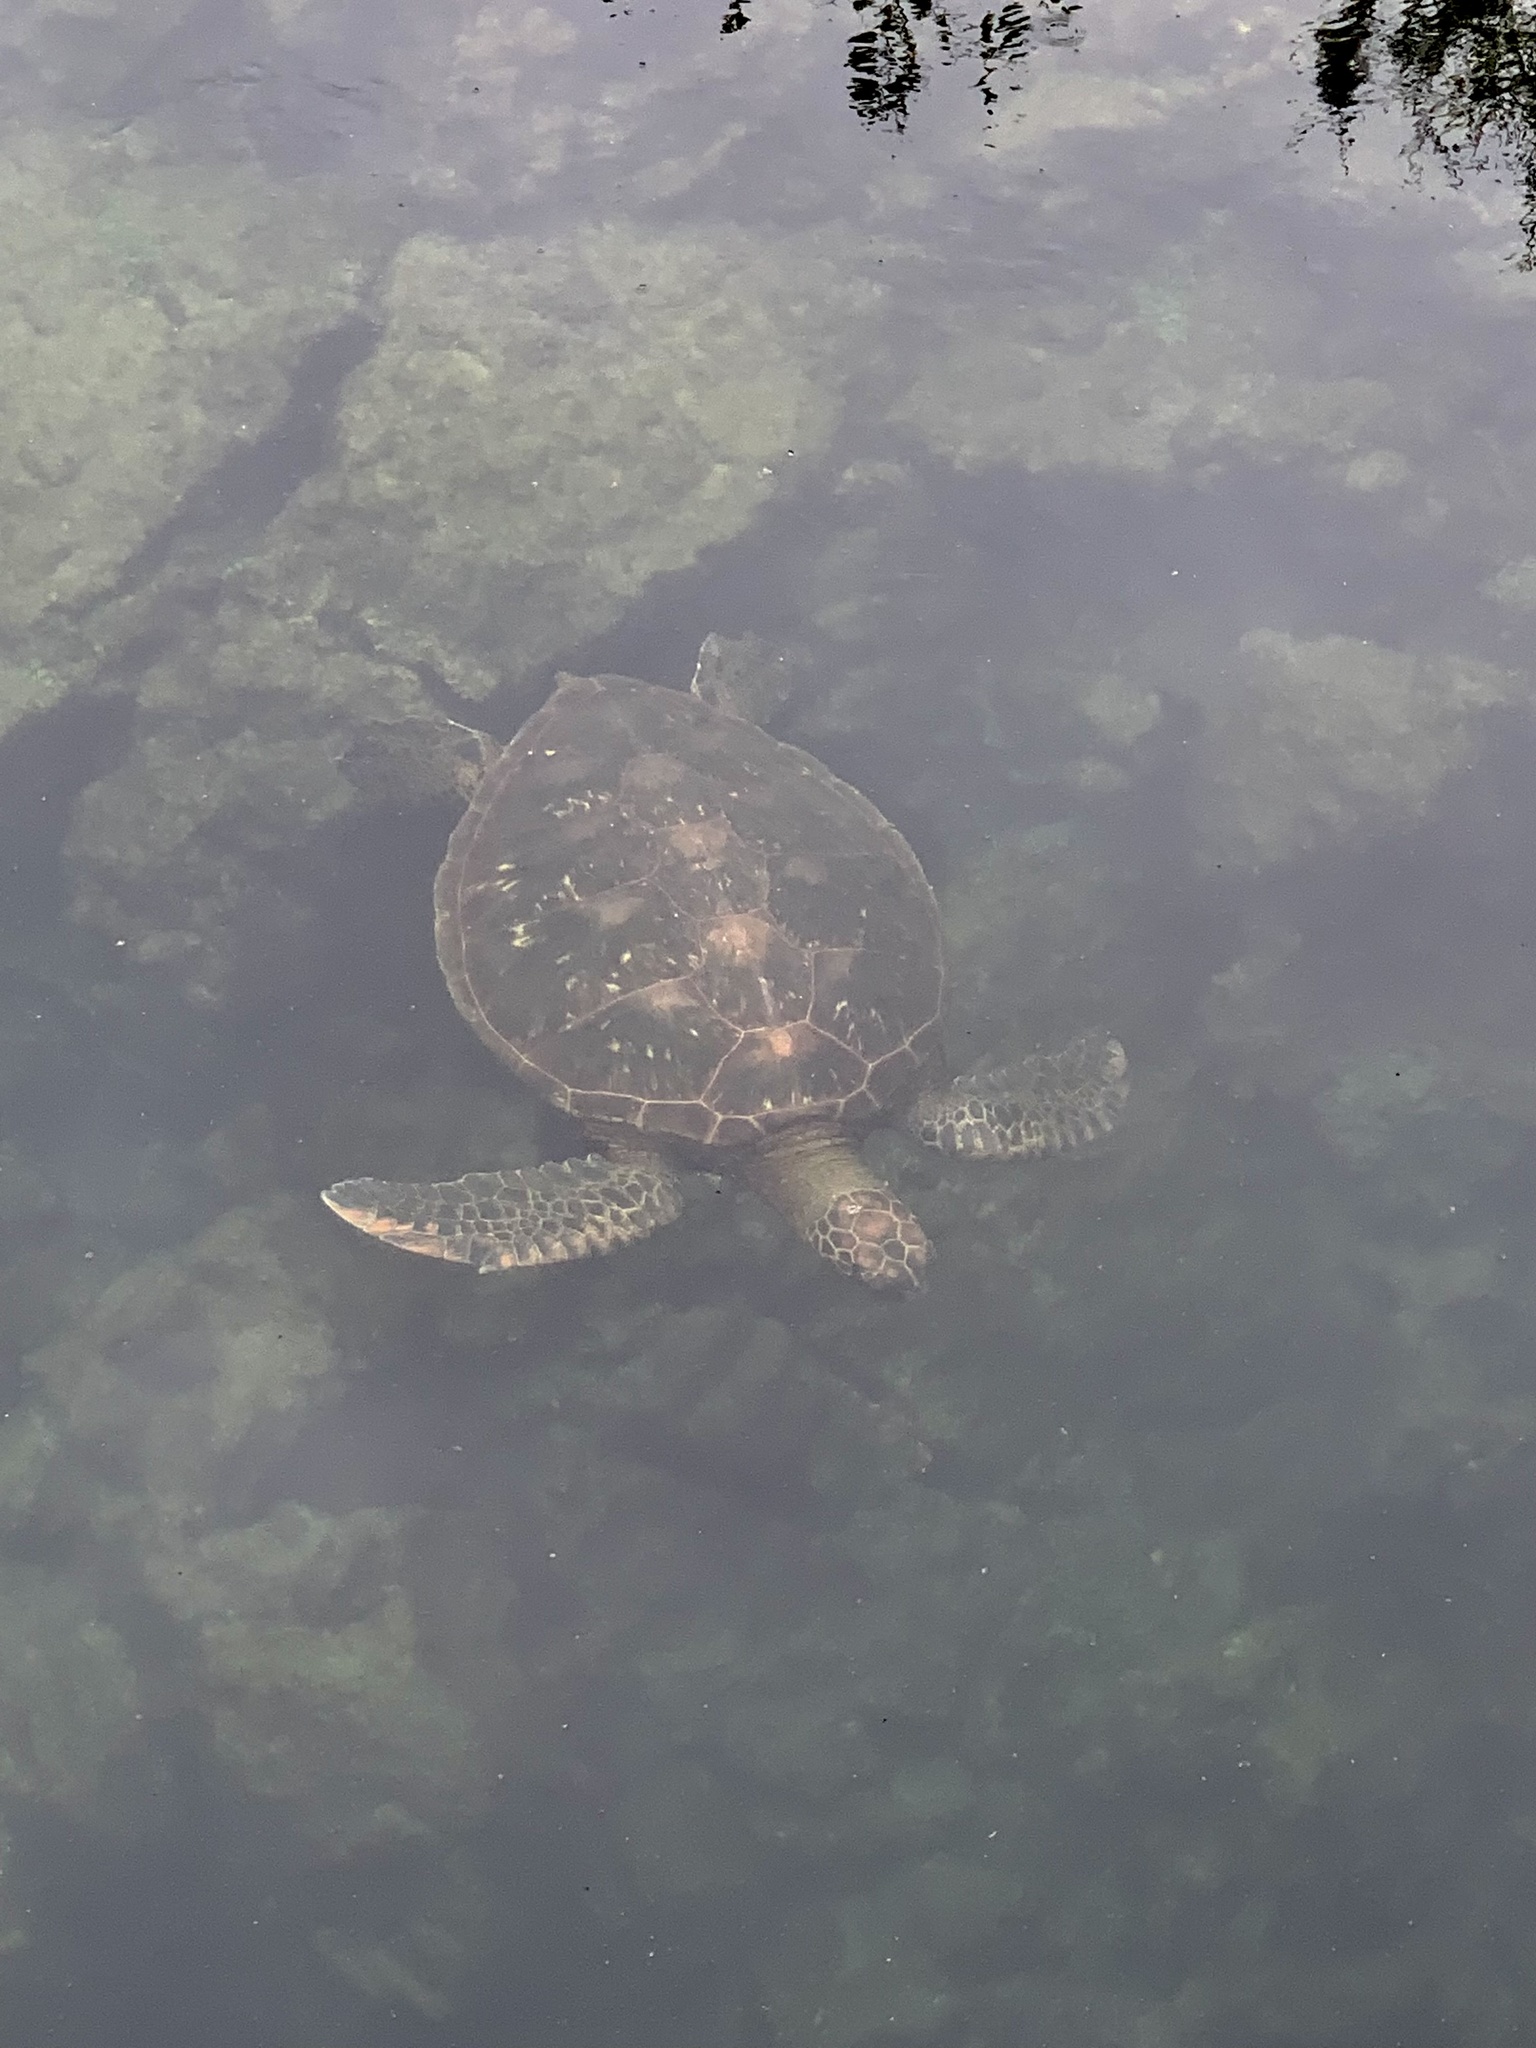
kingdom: Animalia
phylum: Chordata
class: Testudines
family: Cheloniidae
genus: Chelonia
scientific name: Chelonia mydas
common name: Green turtle
